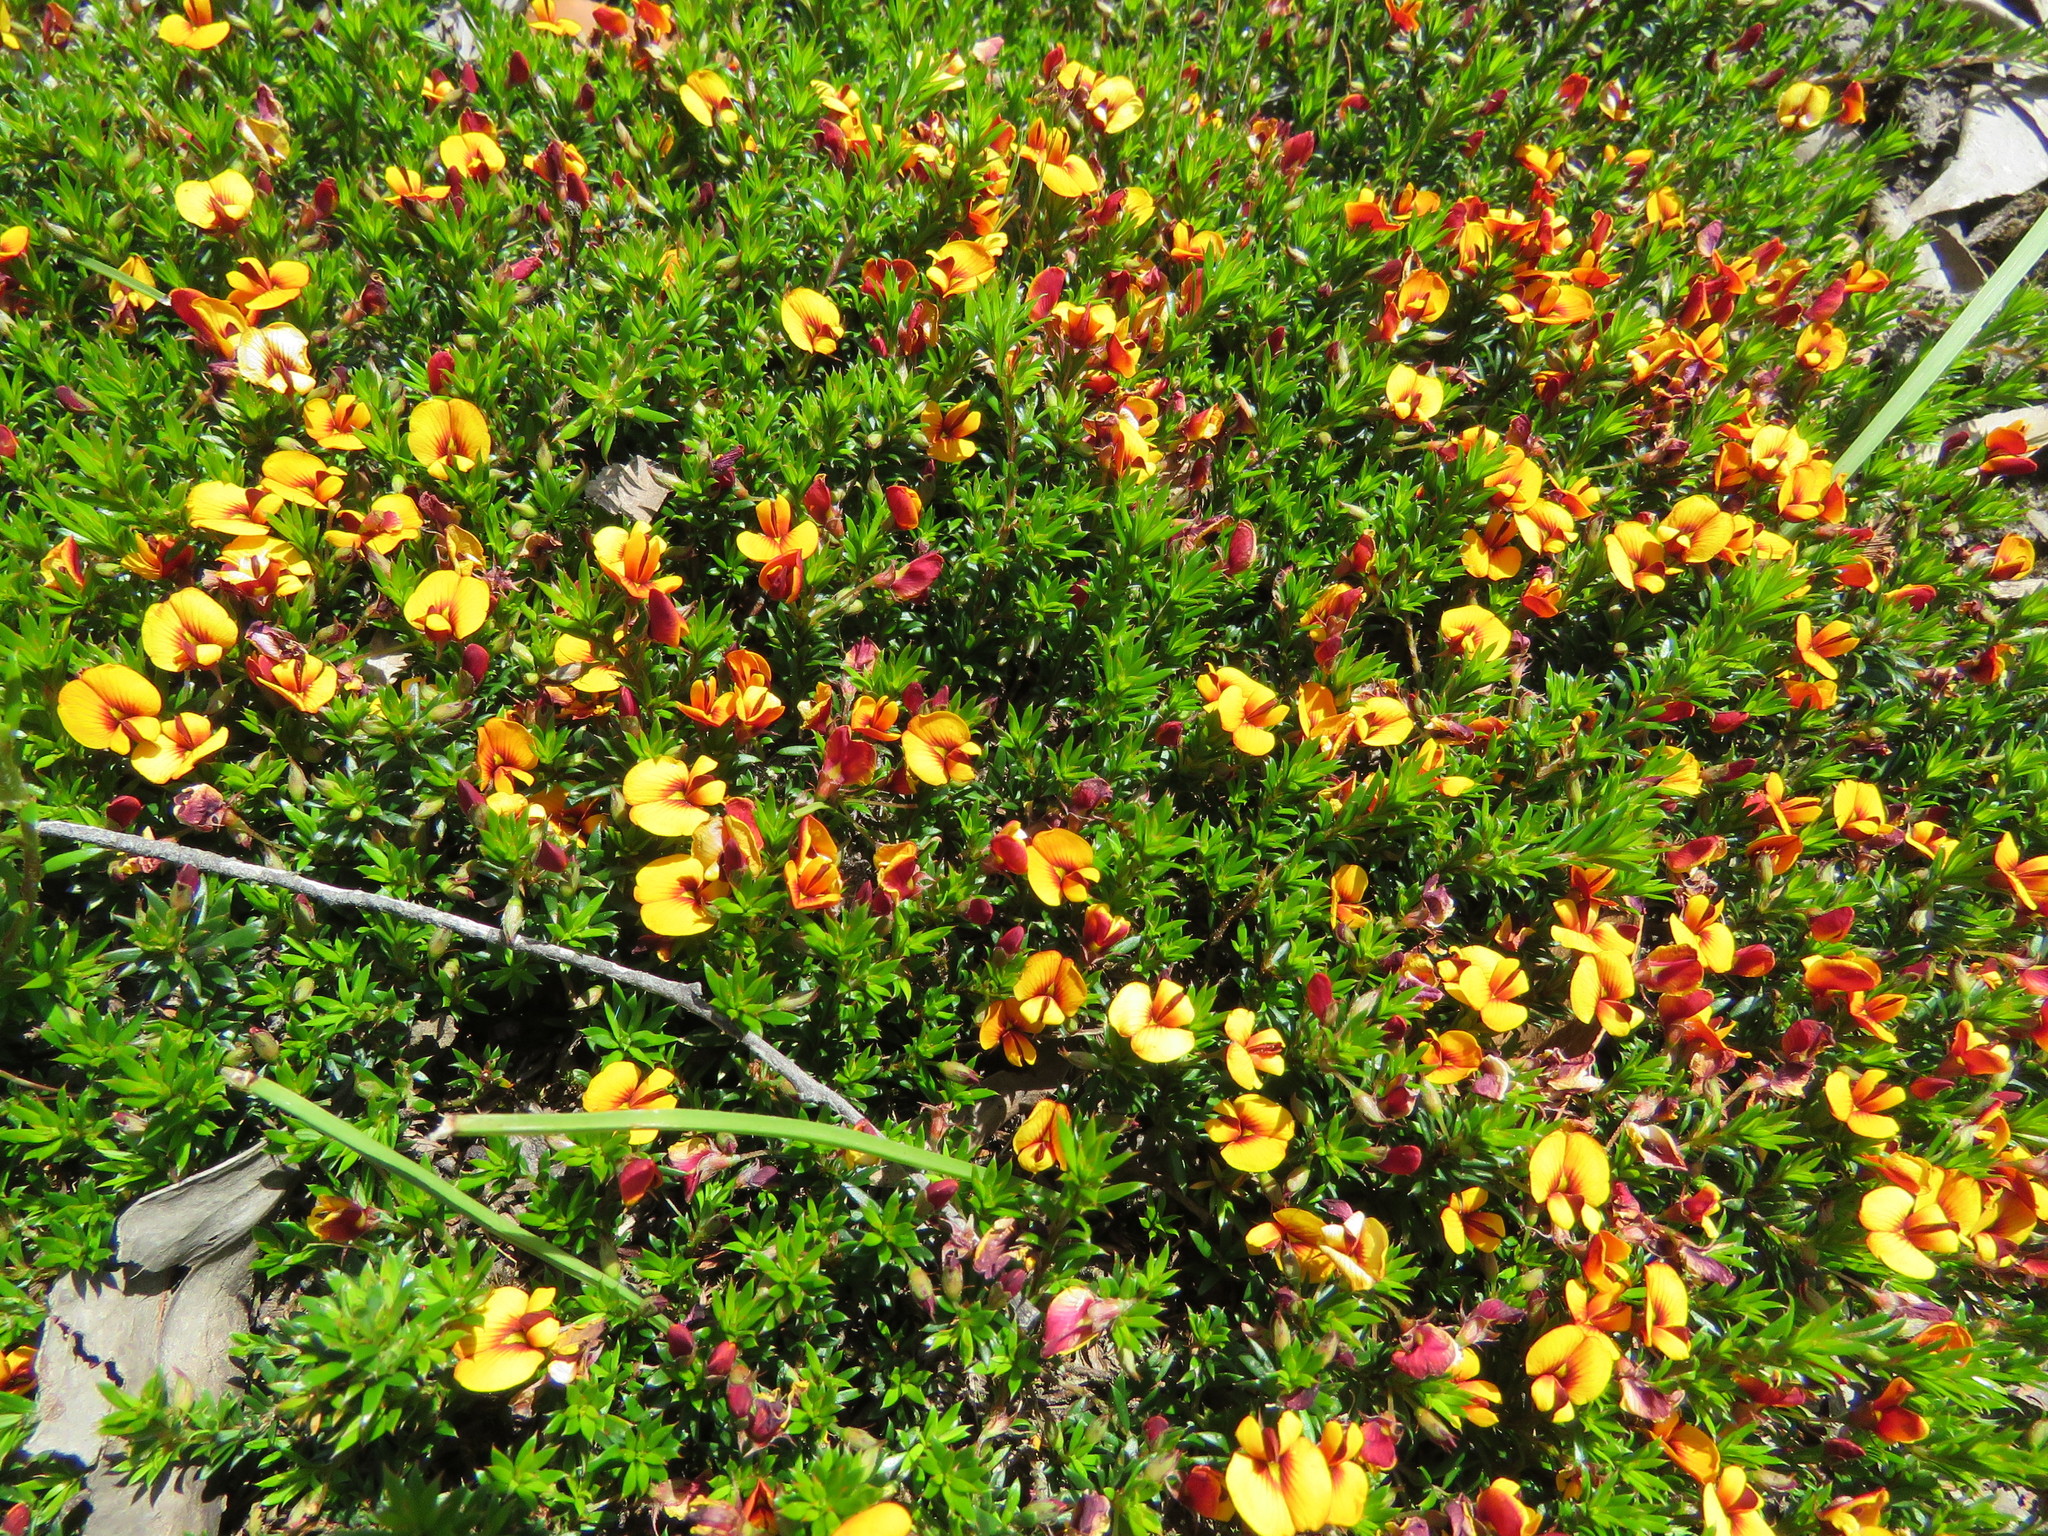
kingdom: Plantae
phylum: Tracheophyta
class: Magnoliopsida
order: Fabales
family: Fabaceae
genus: Pultenaea
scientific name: Pultenaea pedunculata
